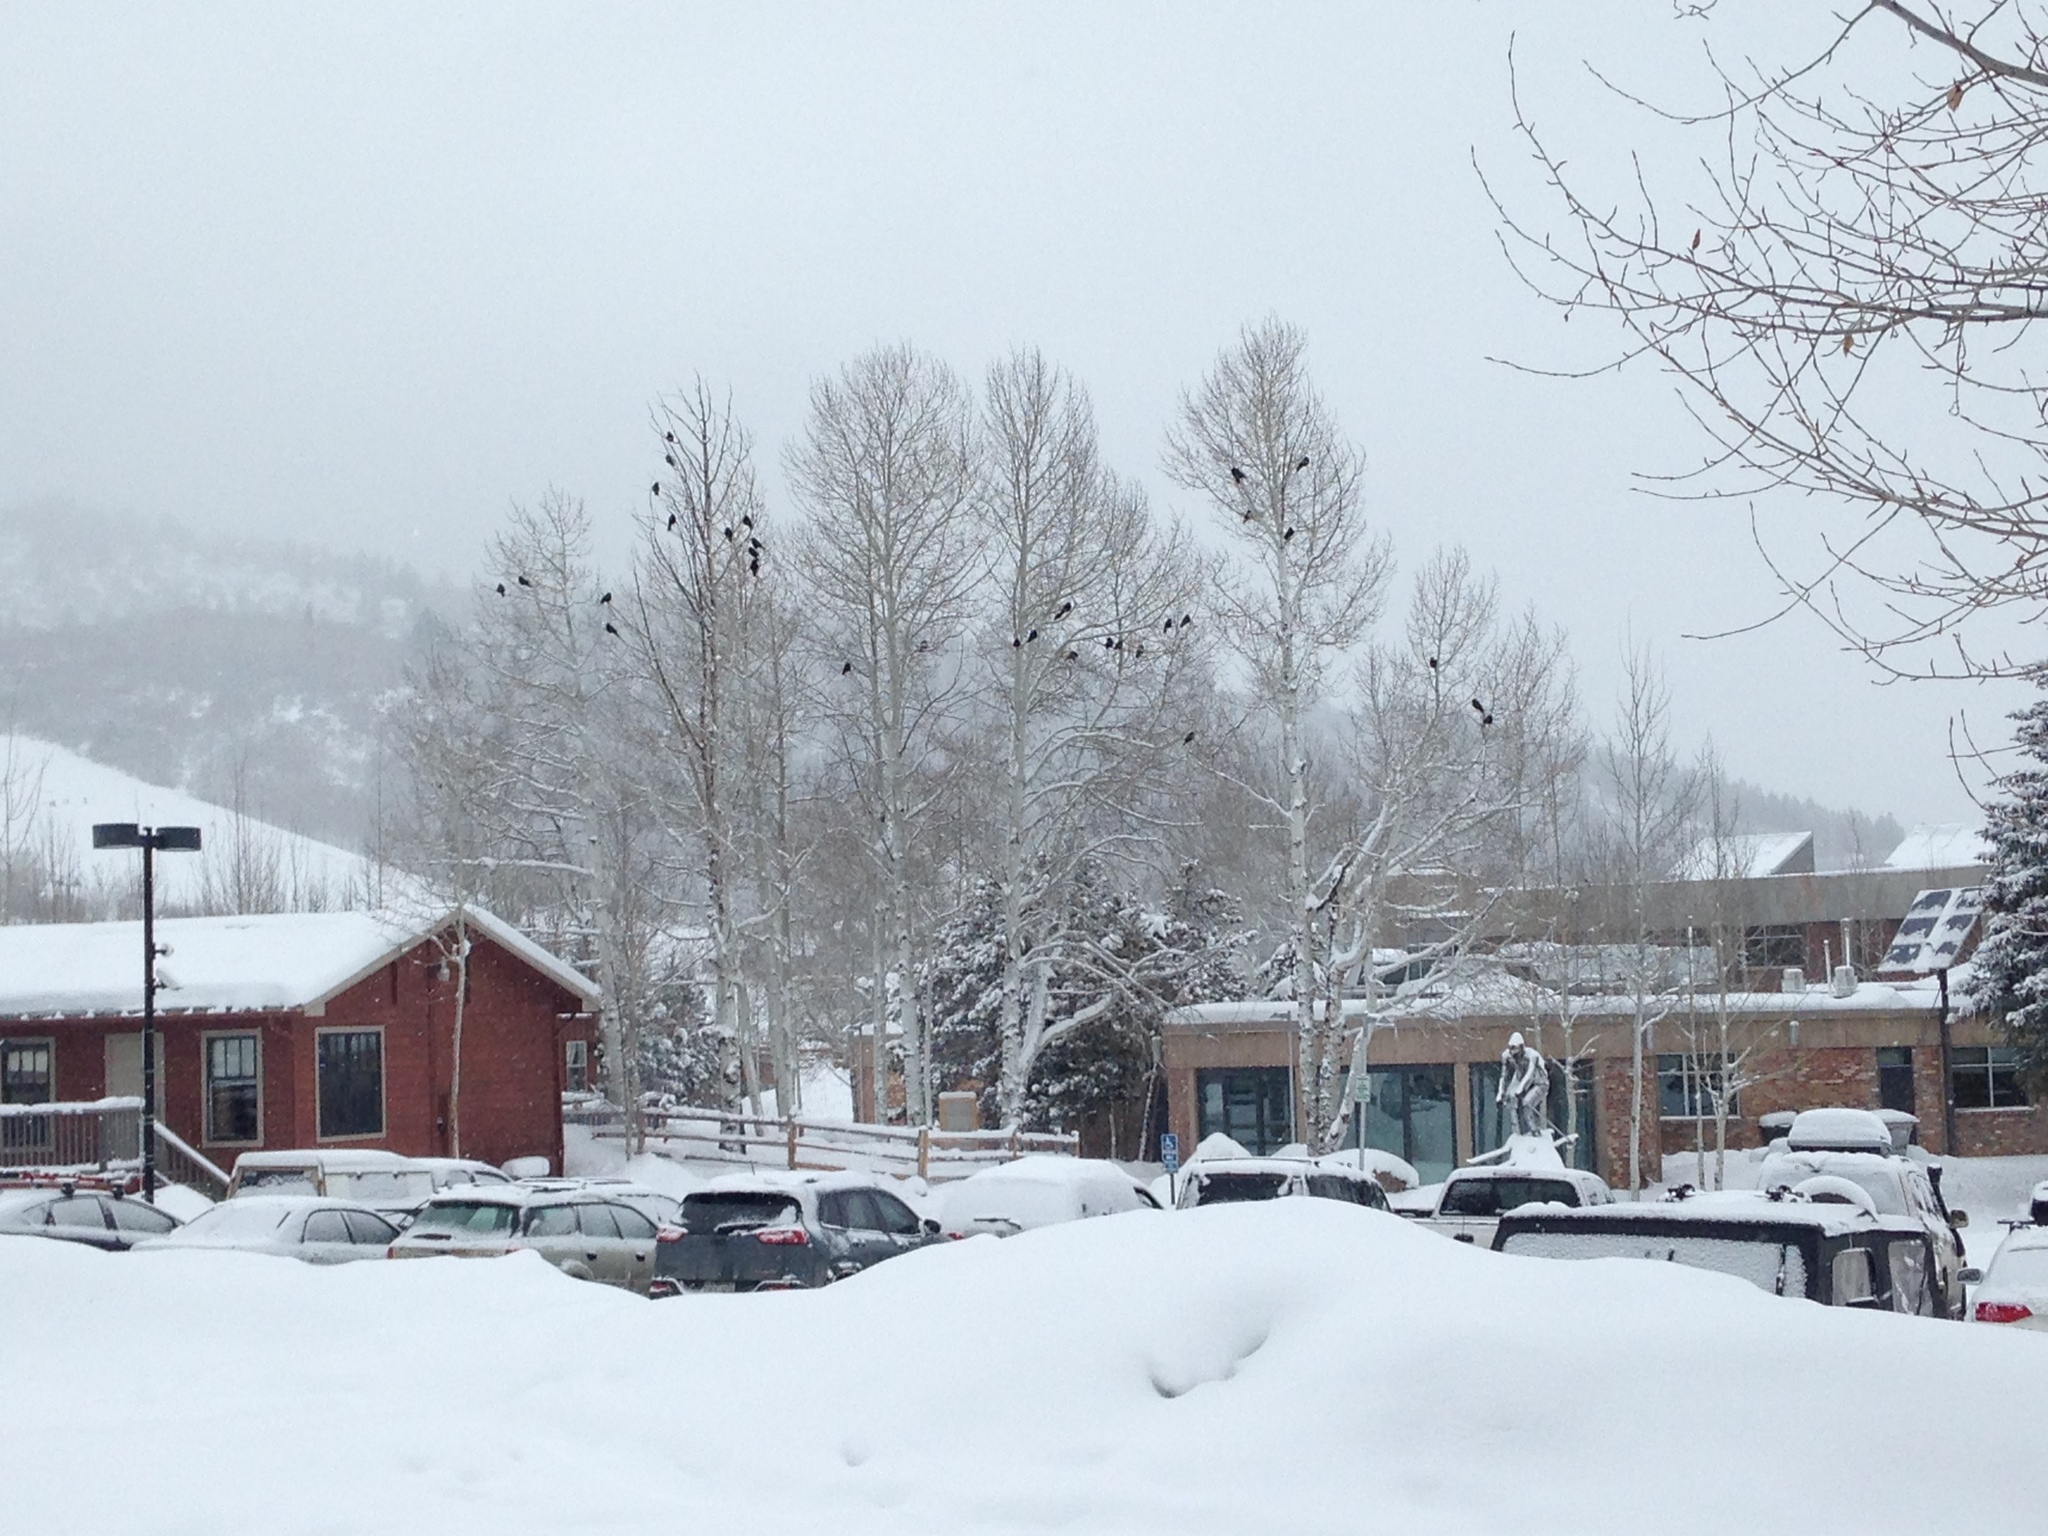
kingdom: Animalia
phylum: Chordata
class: Aves
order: Passeriformes
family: Corvidae
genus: Corvus
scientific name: Corvus brachyrhynchos
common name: American crow
